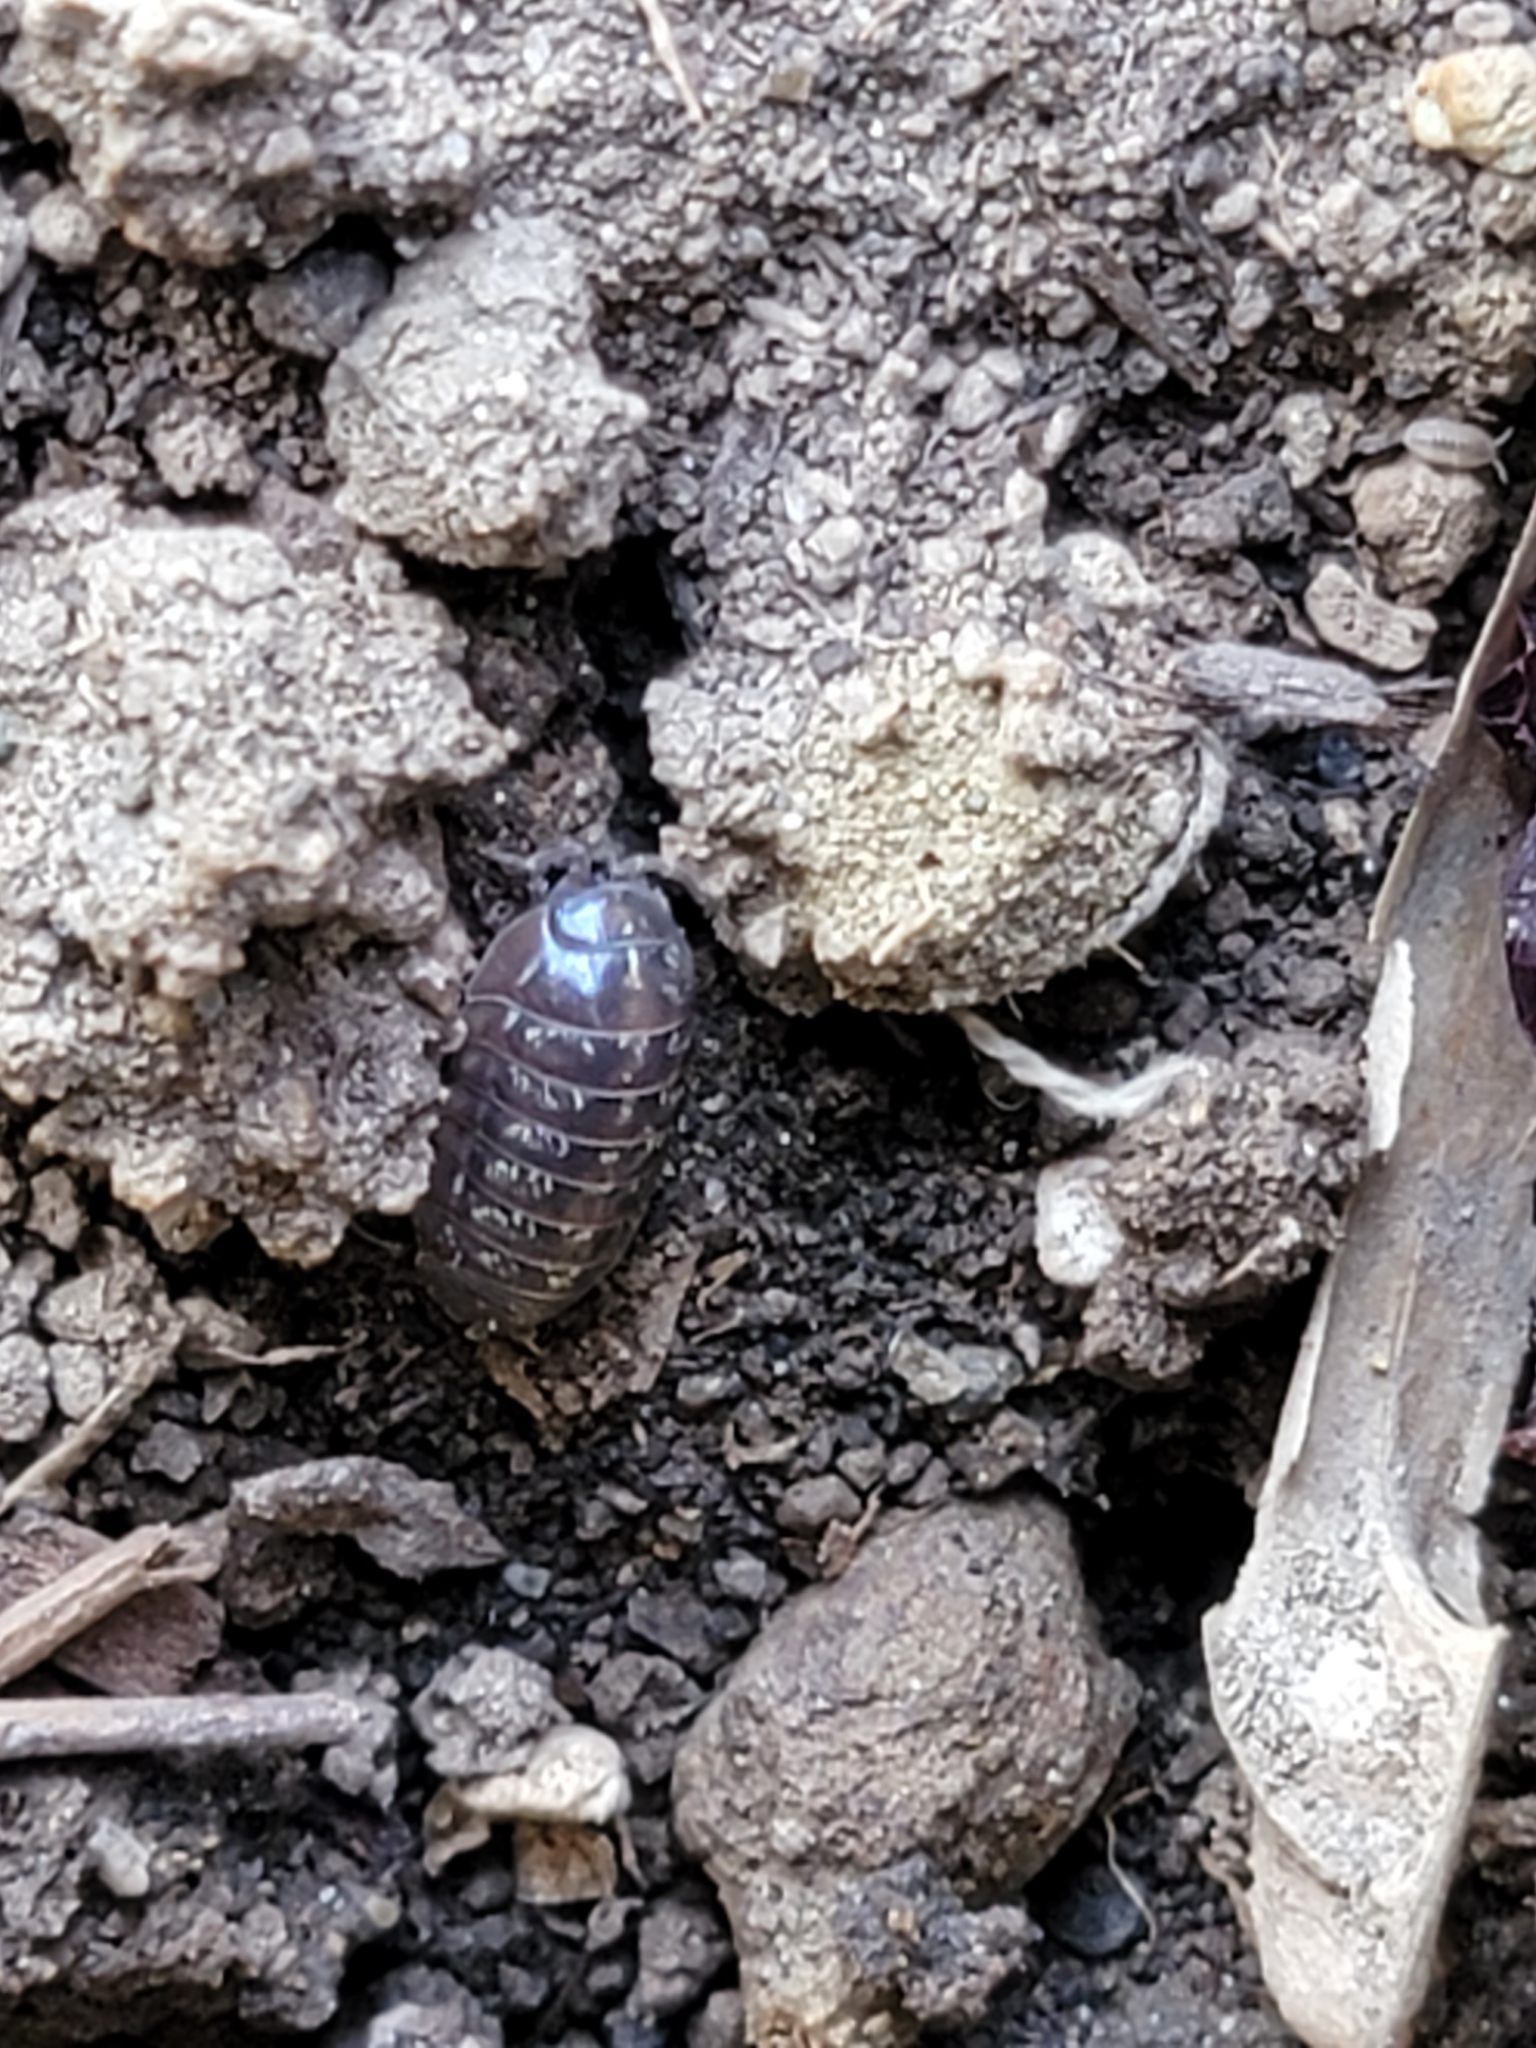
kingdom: Animalia
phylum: Arthropoda
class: Malacostraca
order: Isopoda
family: Armadillidiidae
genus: Armadillidium
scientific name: Armadillidium vulgare
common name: Common pill woodlouse
